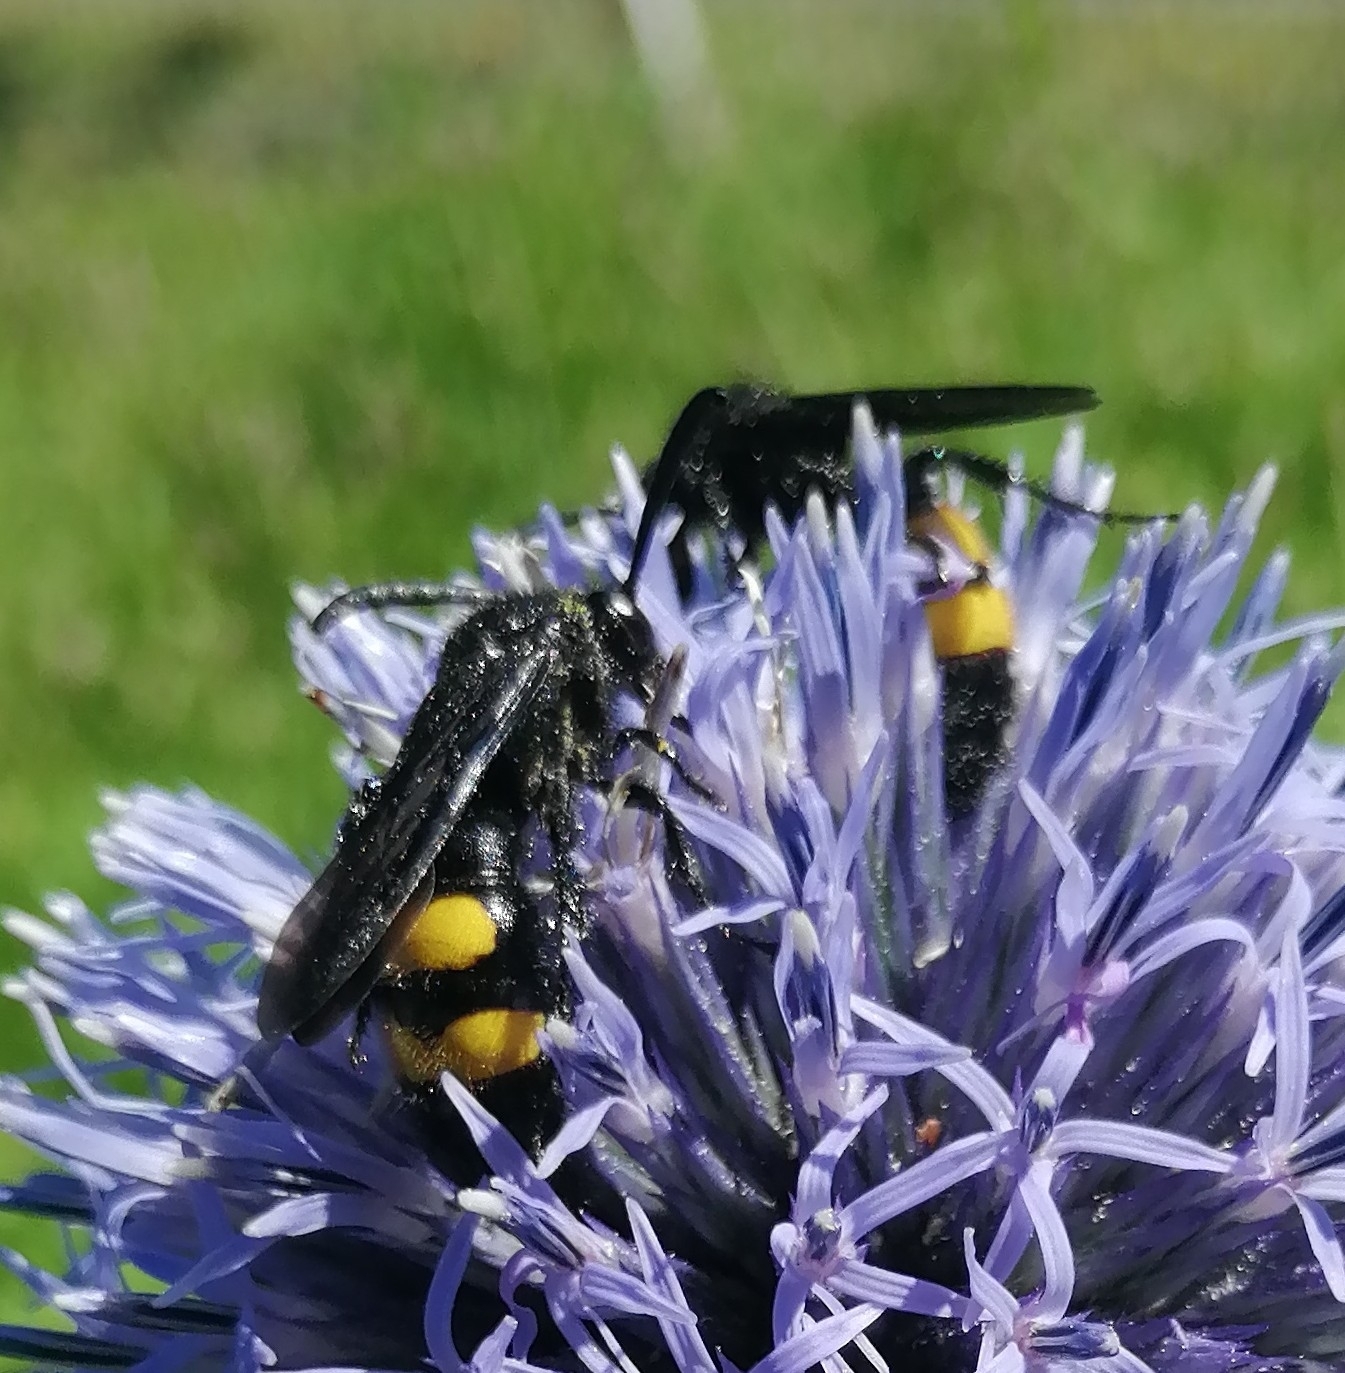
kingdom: Animalia
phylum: Arthropoda
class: Insecta
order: Hymenoptera
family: Scoliidae
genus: Scolia
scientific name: Scolia hirta
